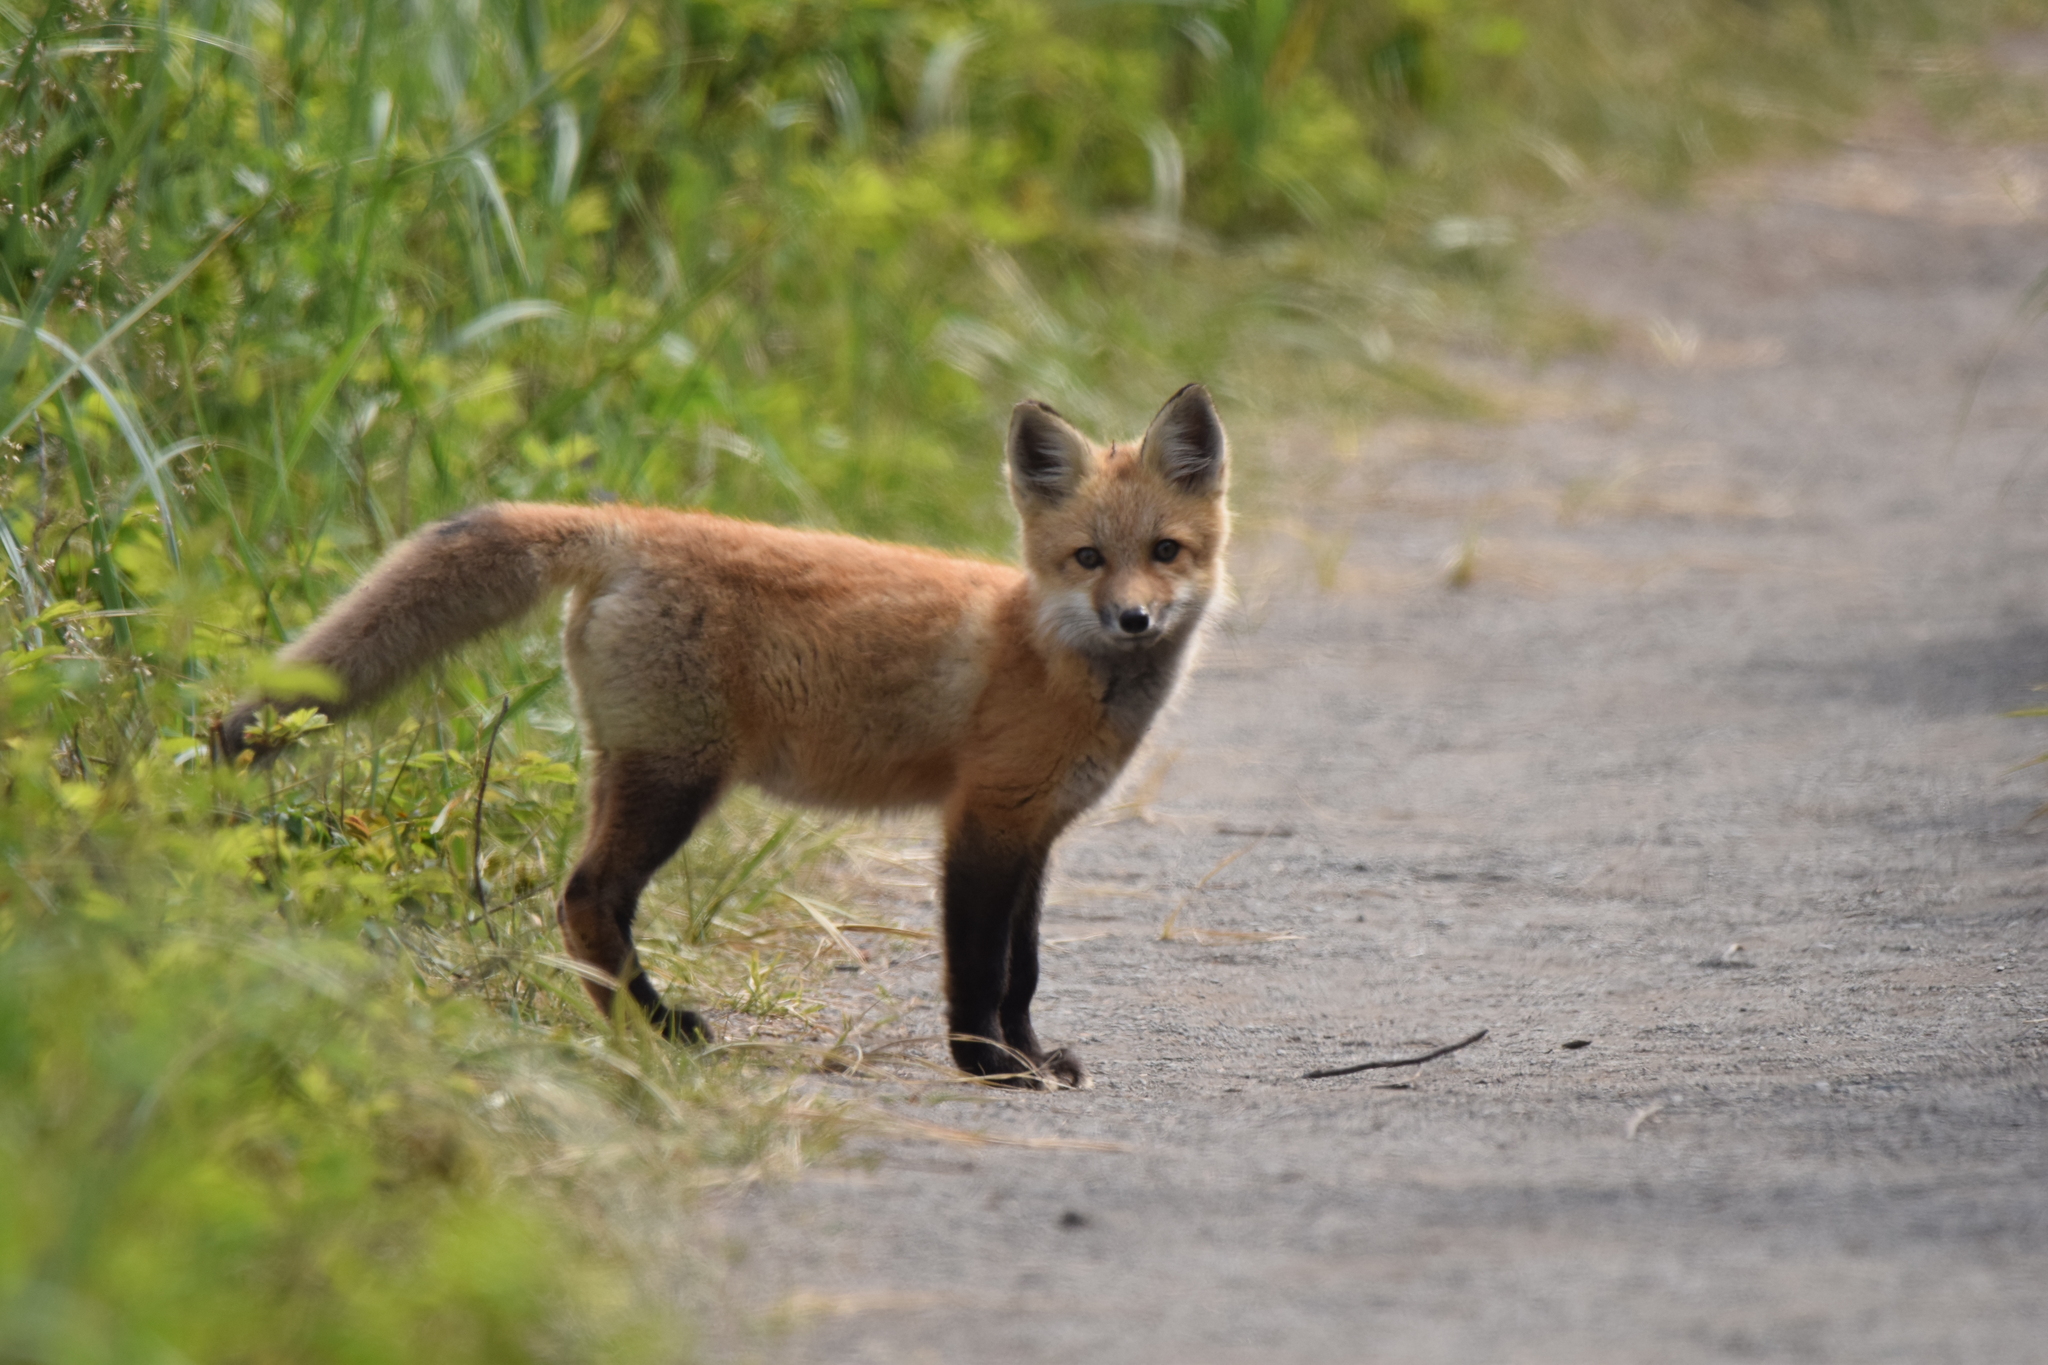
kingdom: Animalia
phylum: Chordata
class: Mammalia
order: Carnivora
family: Canidae
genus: Vulpes
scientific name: Vulpes vulpes
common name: Red fox
